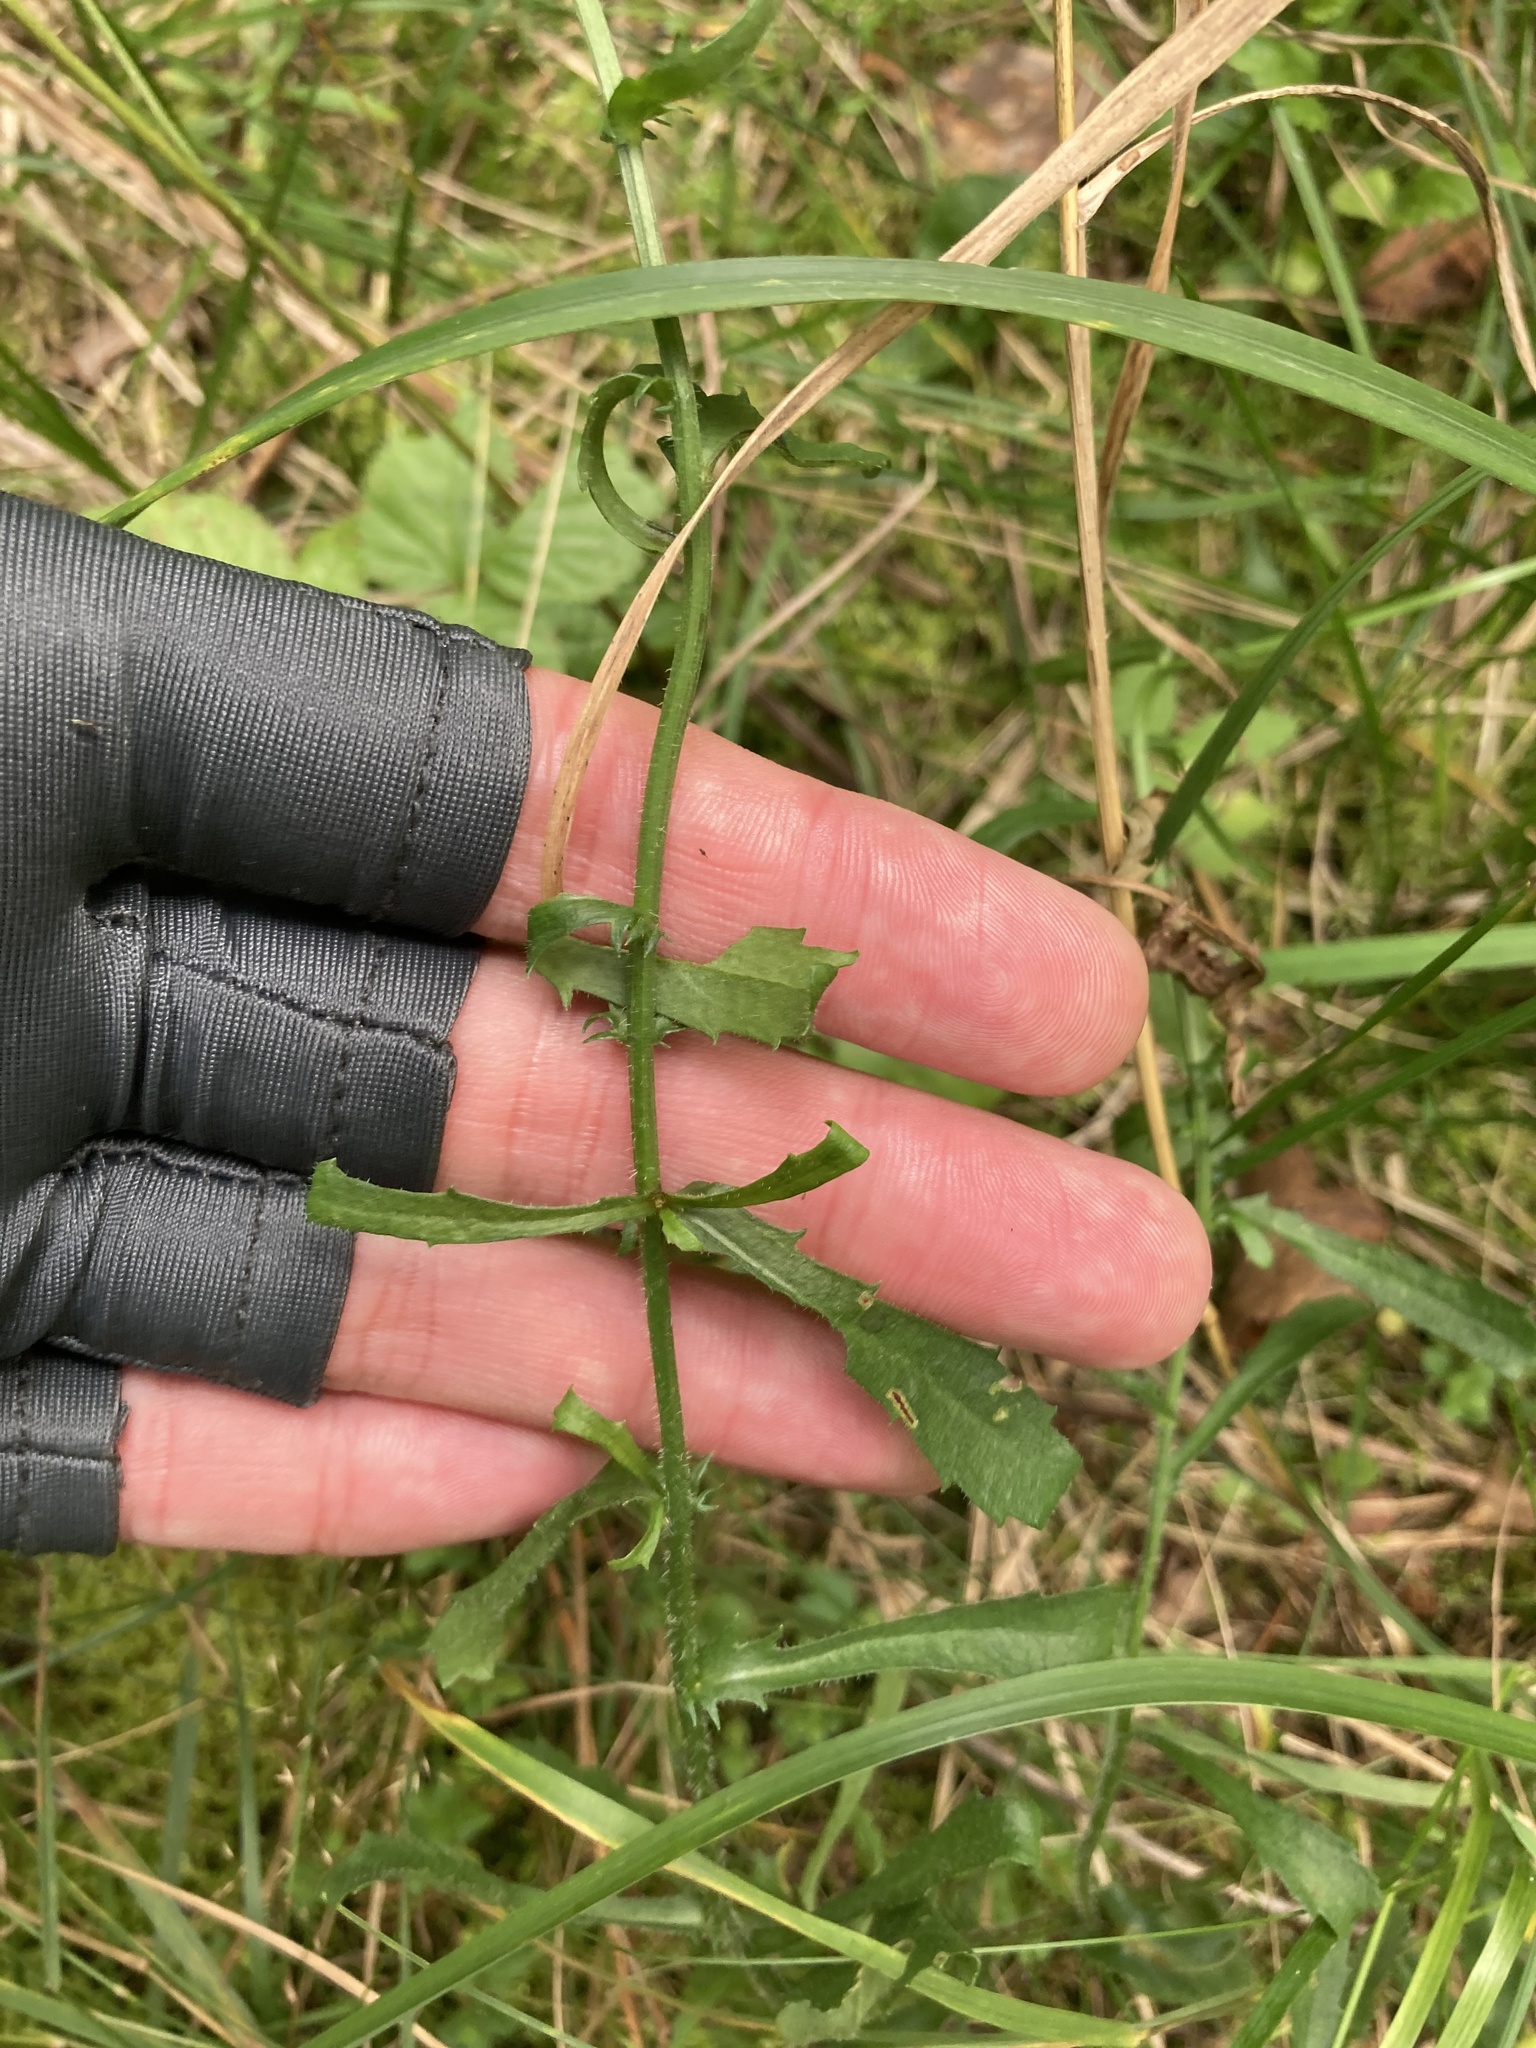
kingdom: Plantae
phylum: Tracheophyta
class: Magnoliopsida
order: Asterales
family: Asteraceae
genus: Leucanthemum
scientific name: Leucanthemum vulgare
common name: Oxeye daisy
